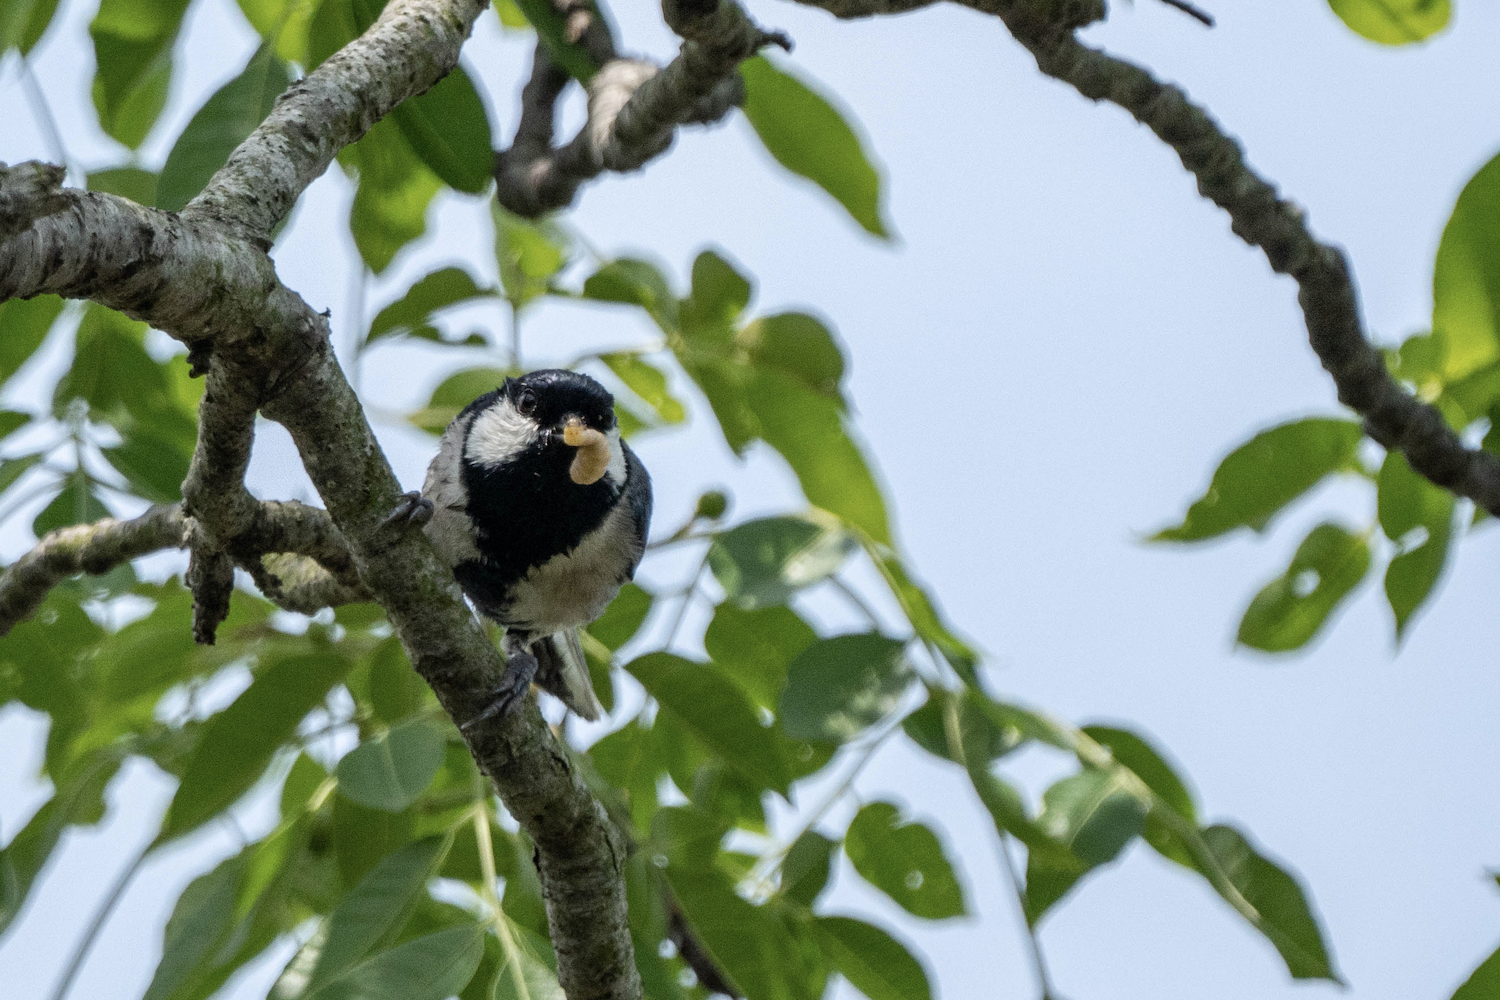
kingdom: Animalia
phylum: Chordata
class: Aves
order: Passeriformes
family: Paridae
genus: Parus
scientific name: Parus minor
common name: Japanese tit
